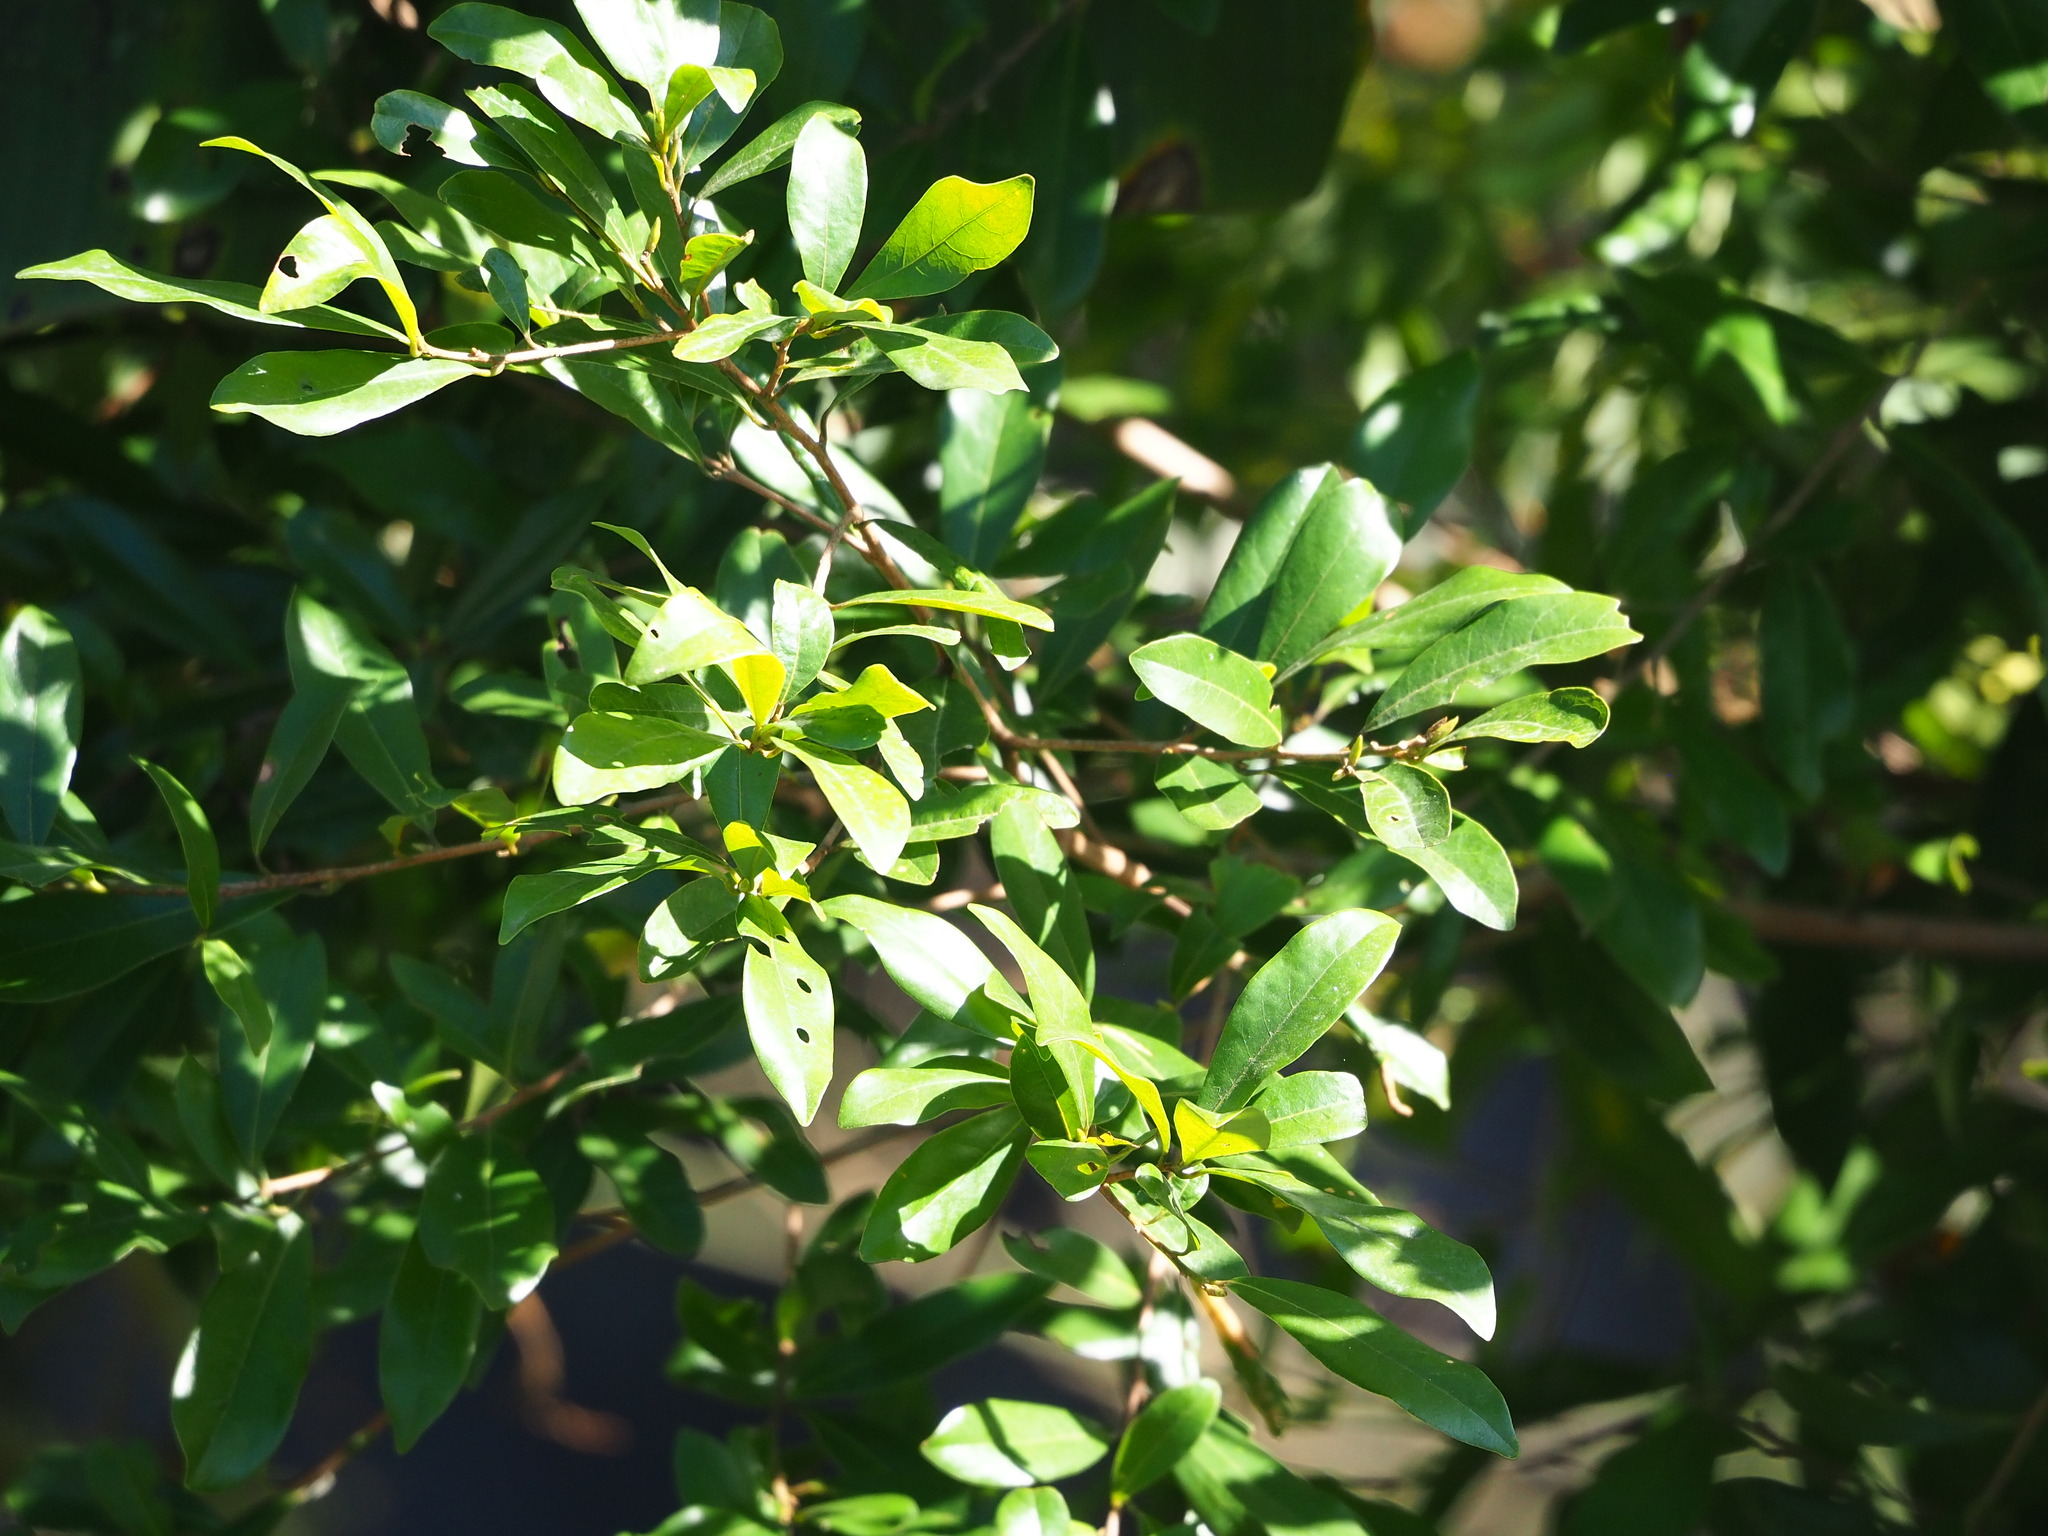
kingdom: Plantae
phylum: Tracheophyta
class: Magnoliopsida
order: Laurales
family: Lauraceae
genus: Litsea
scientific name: Litsea hypophaea
